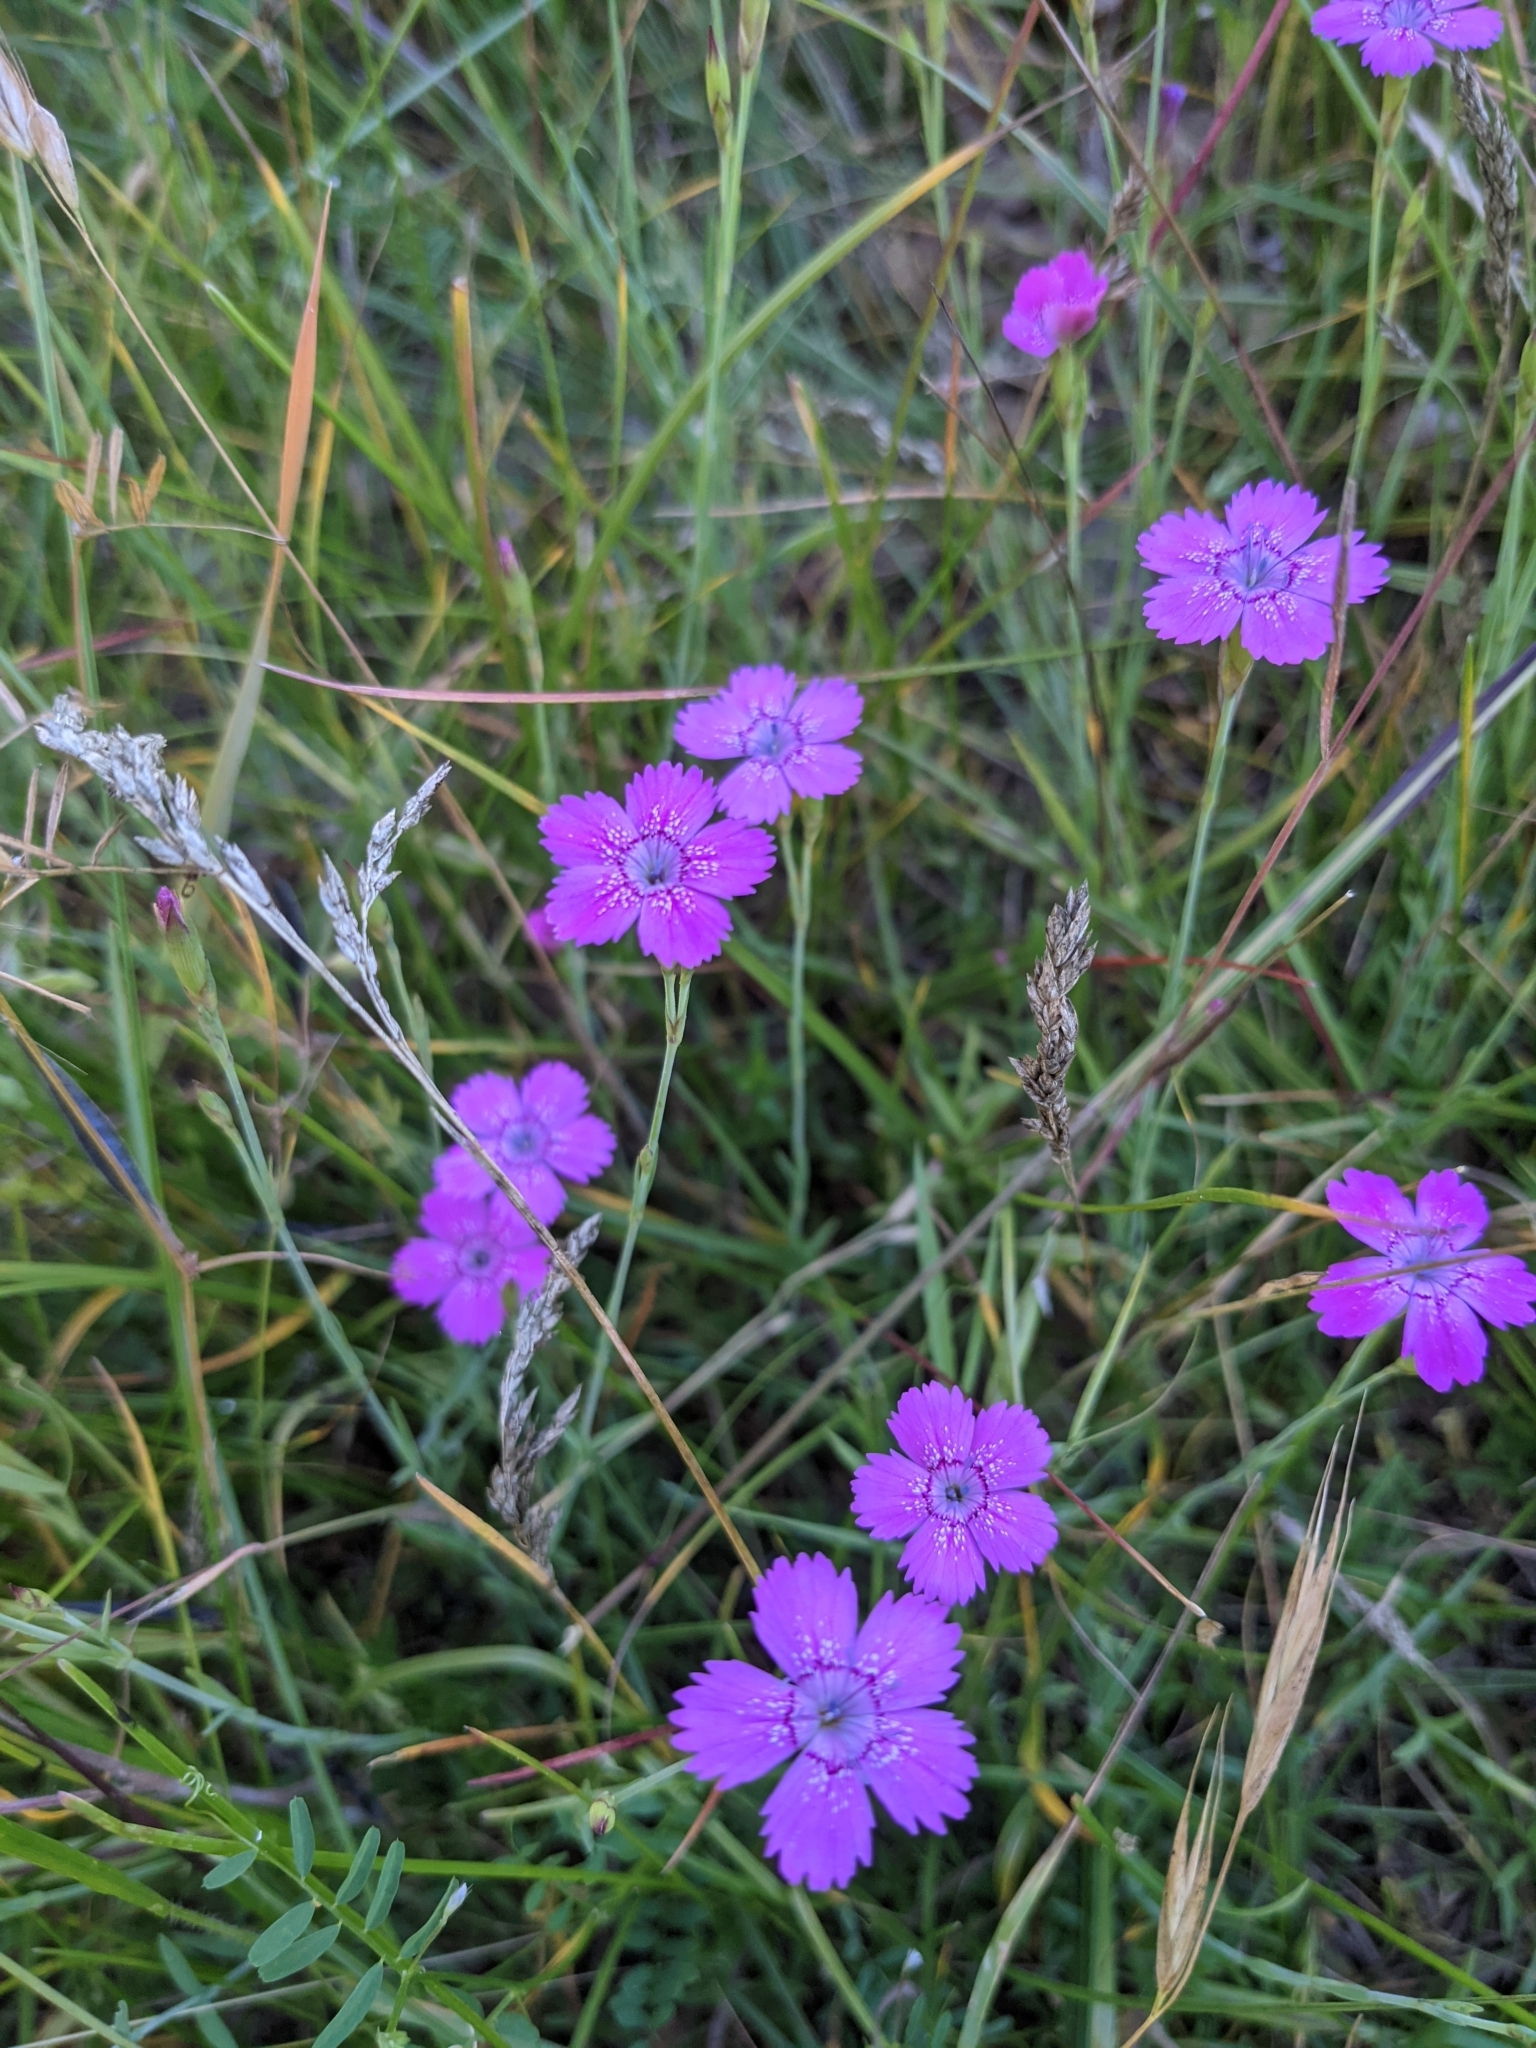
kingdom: Plantae
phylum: Tracheophyta
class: Magnoliopsida
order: Caryophyllales
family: Caryophyllaceae
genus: Dianthus
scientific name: Dianthus deltoides
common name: Maiden pink
